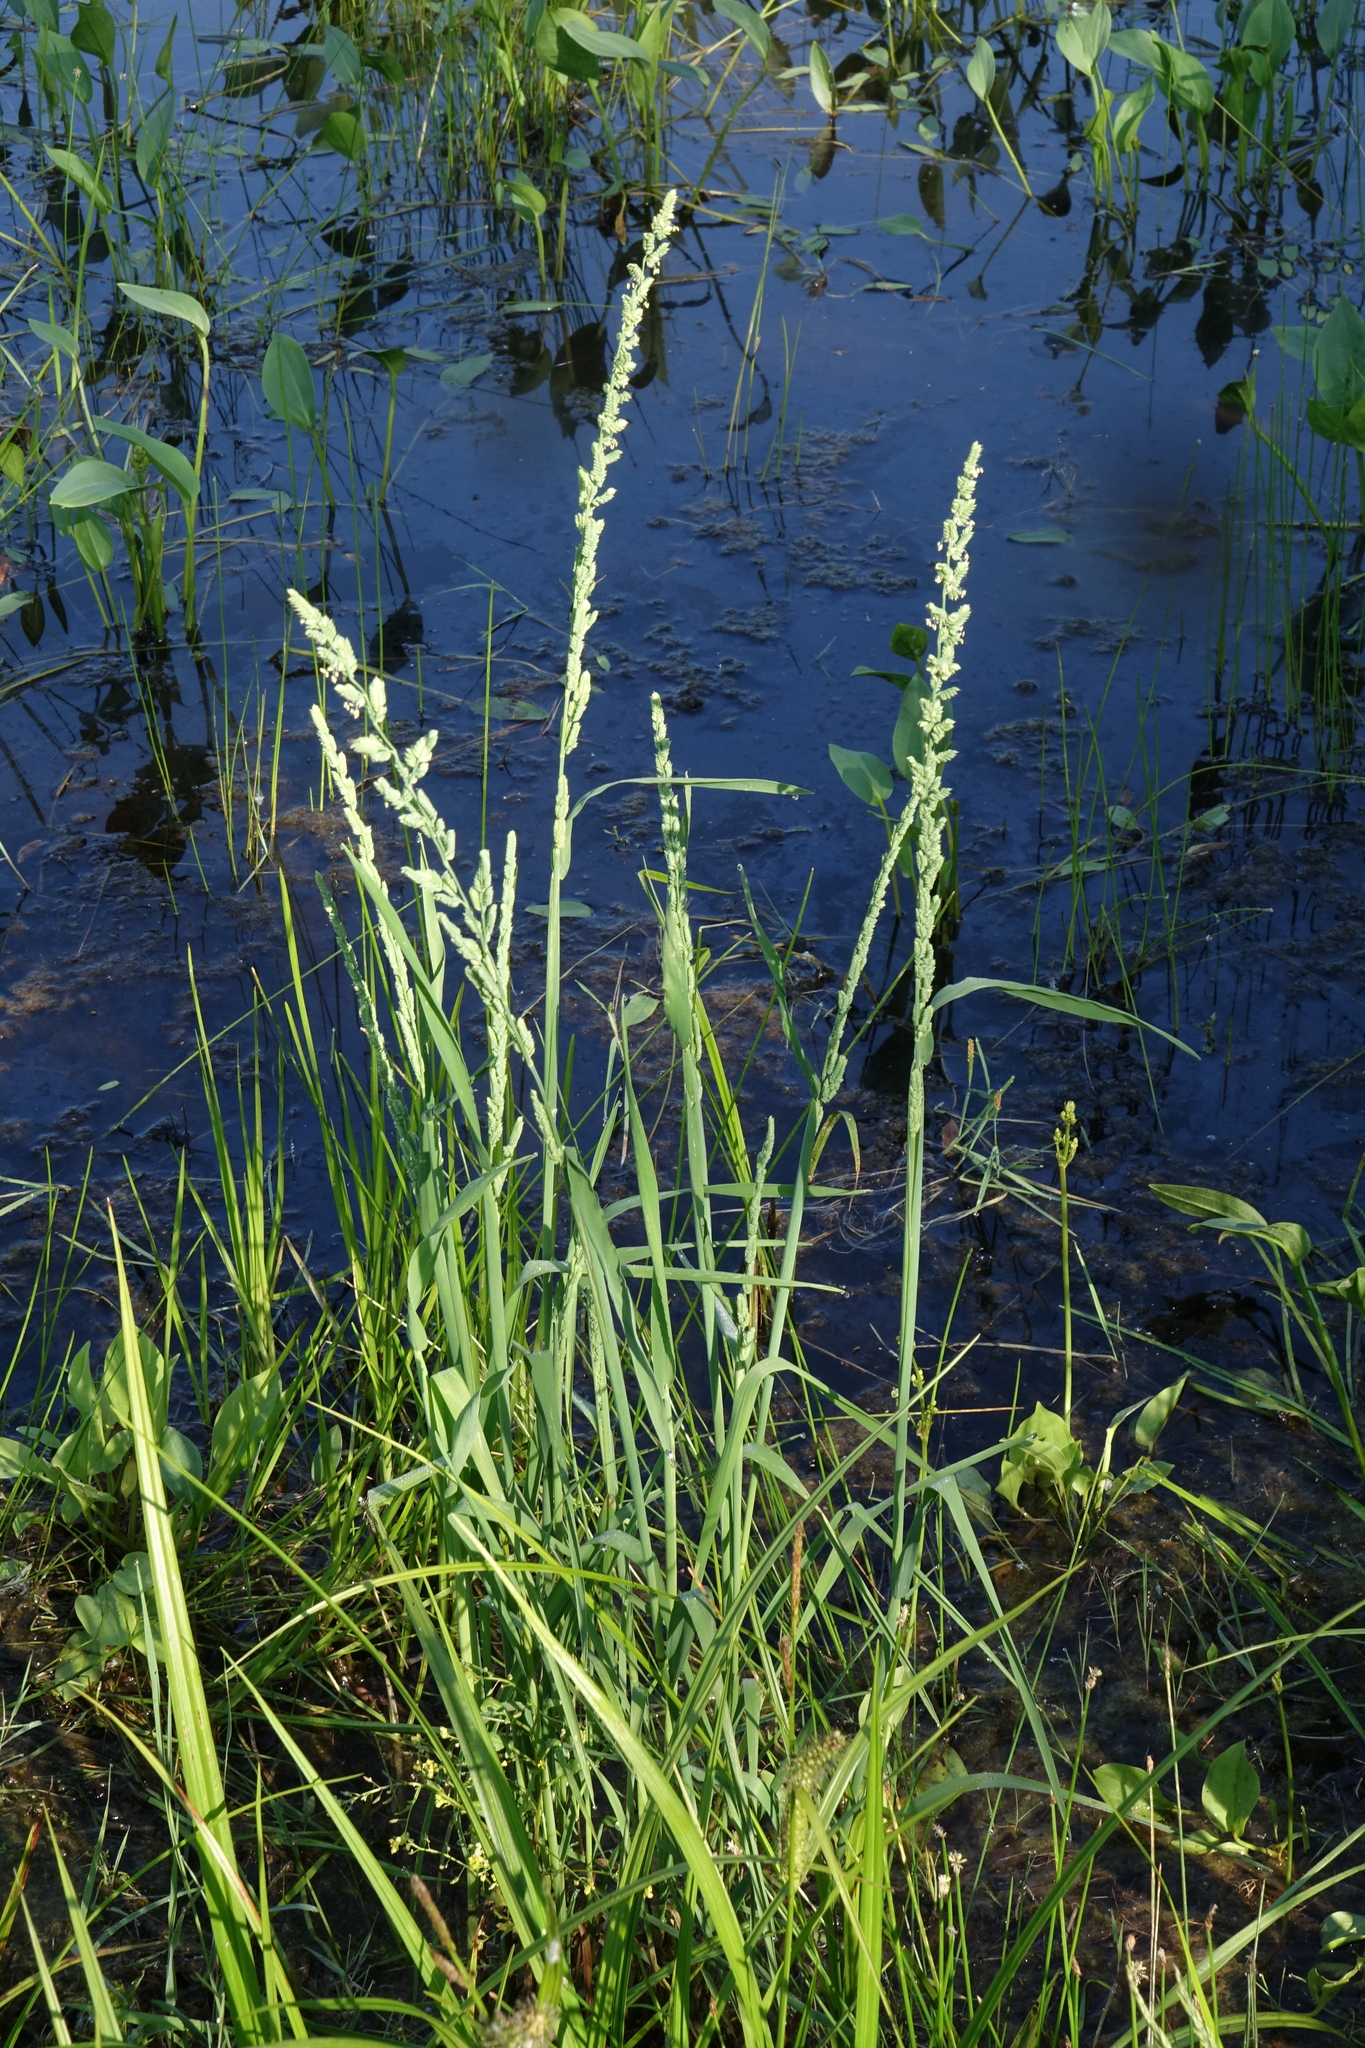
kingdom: Plantae
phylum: Tracheophyta
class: Liliopsida
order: Poales
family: Poaceae
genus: Beckmannia
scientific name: Beckmannia syzigachne
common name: American slough-grass
